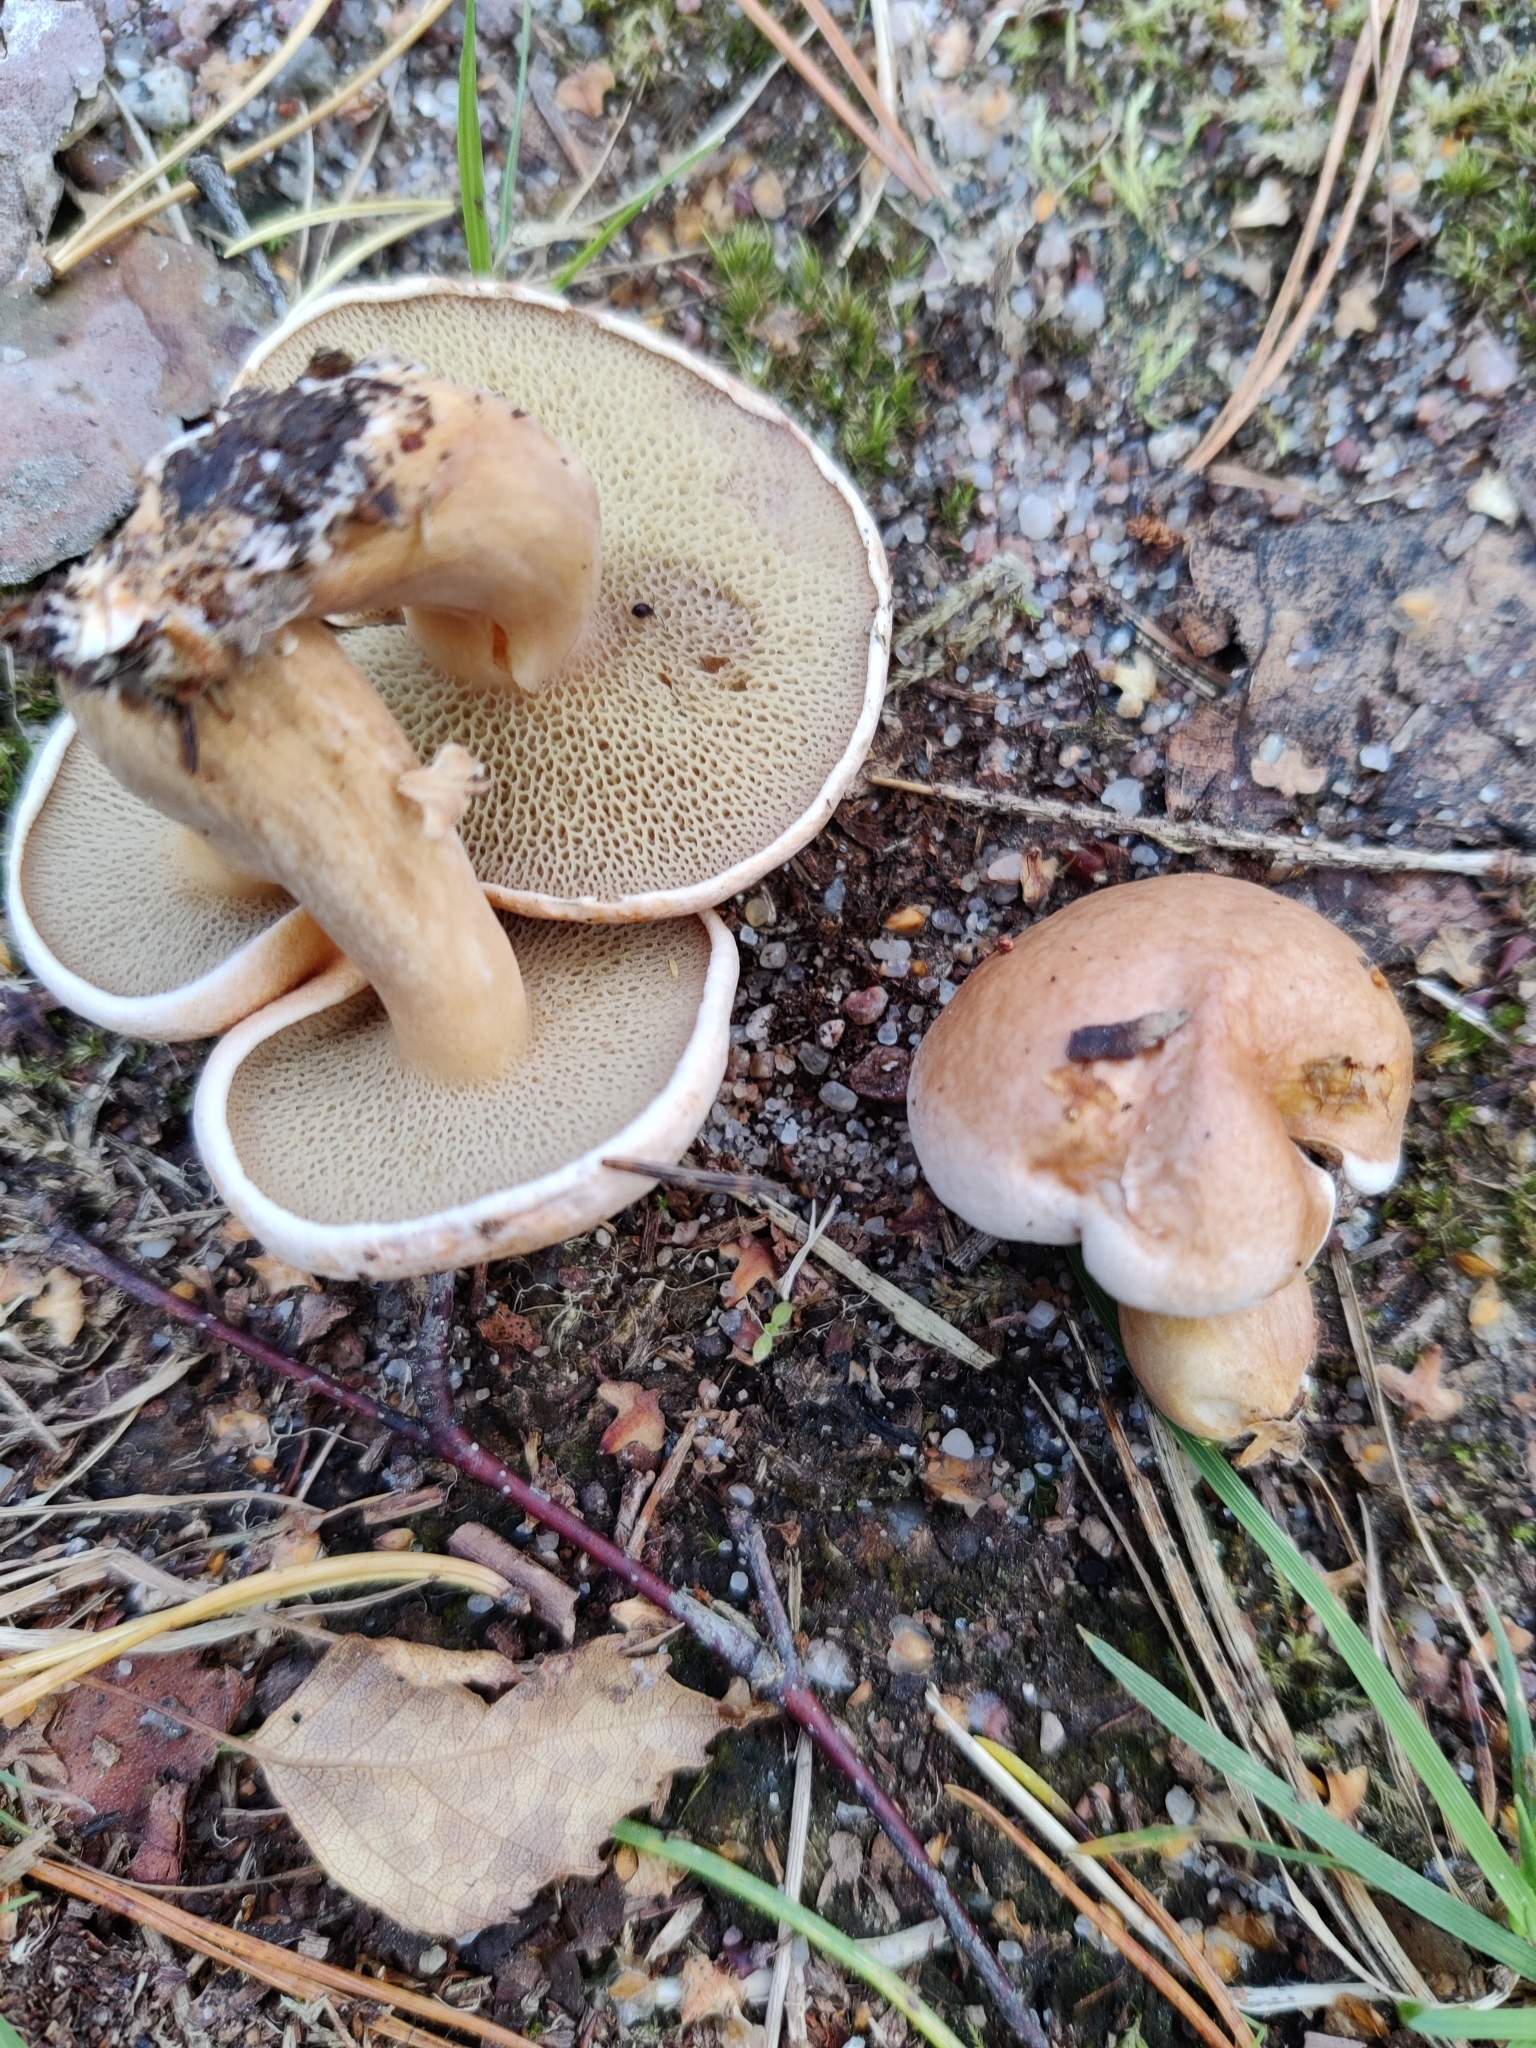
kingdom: Fungi
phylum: Basidiomycota
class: Agaricomycetes
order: Boletales
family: Suillaceae
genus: Suillus
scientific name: Suillus bovinus
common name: Bovine bolete
